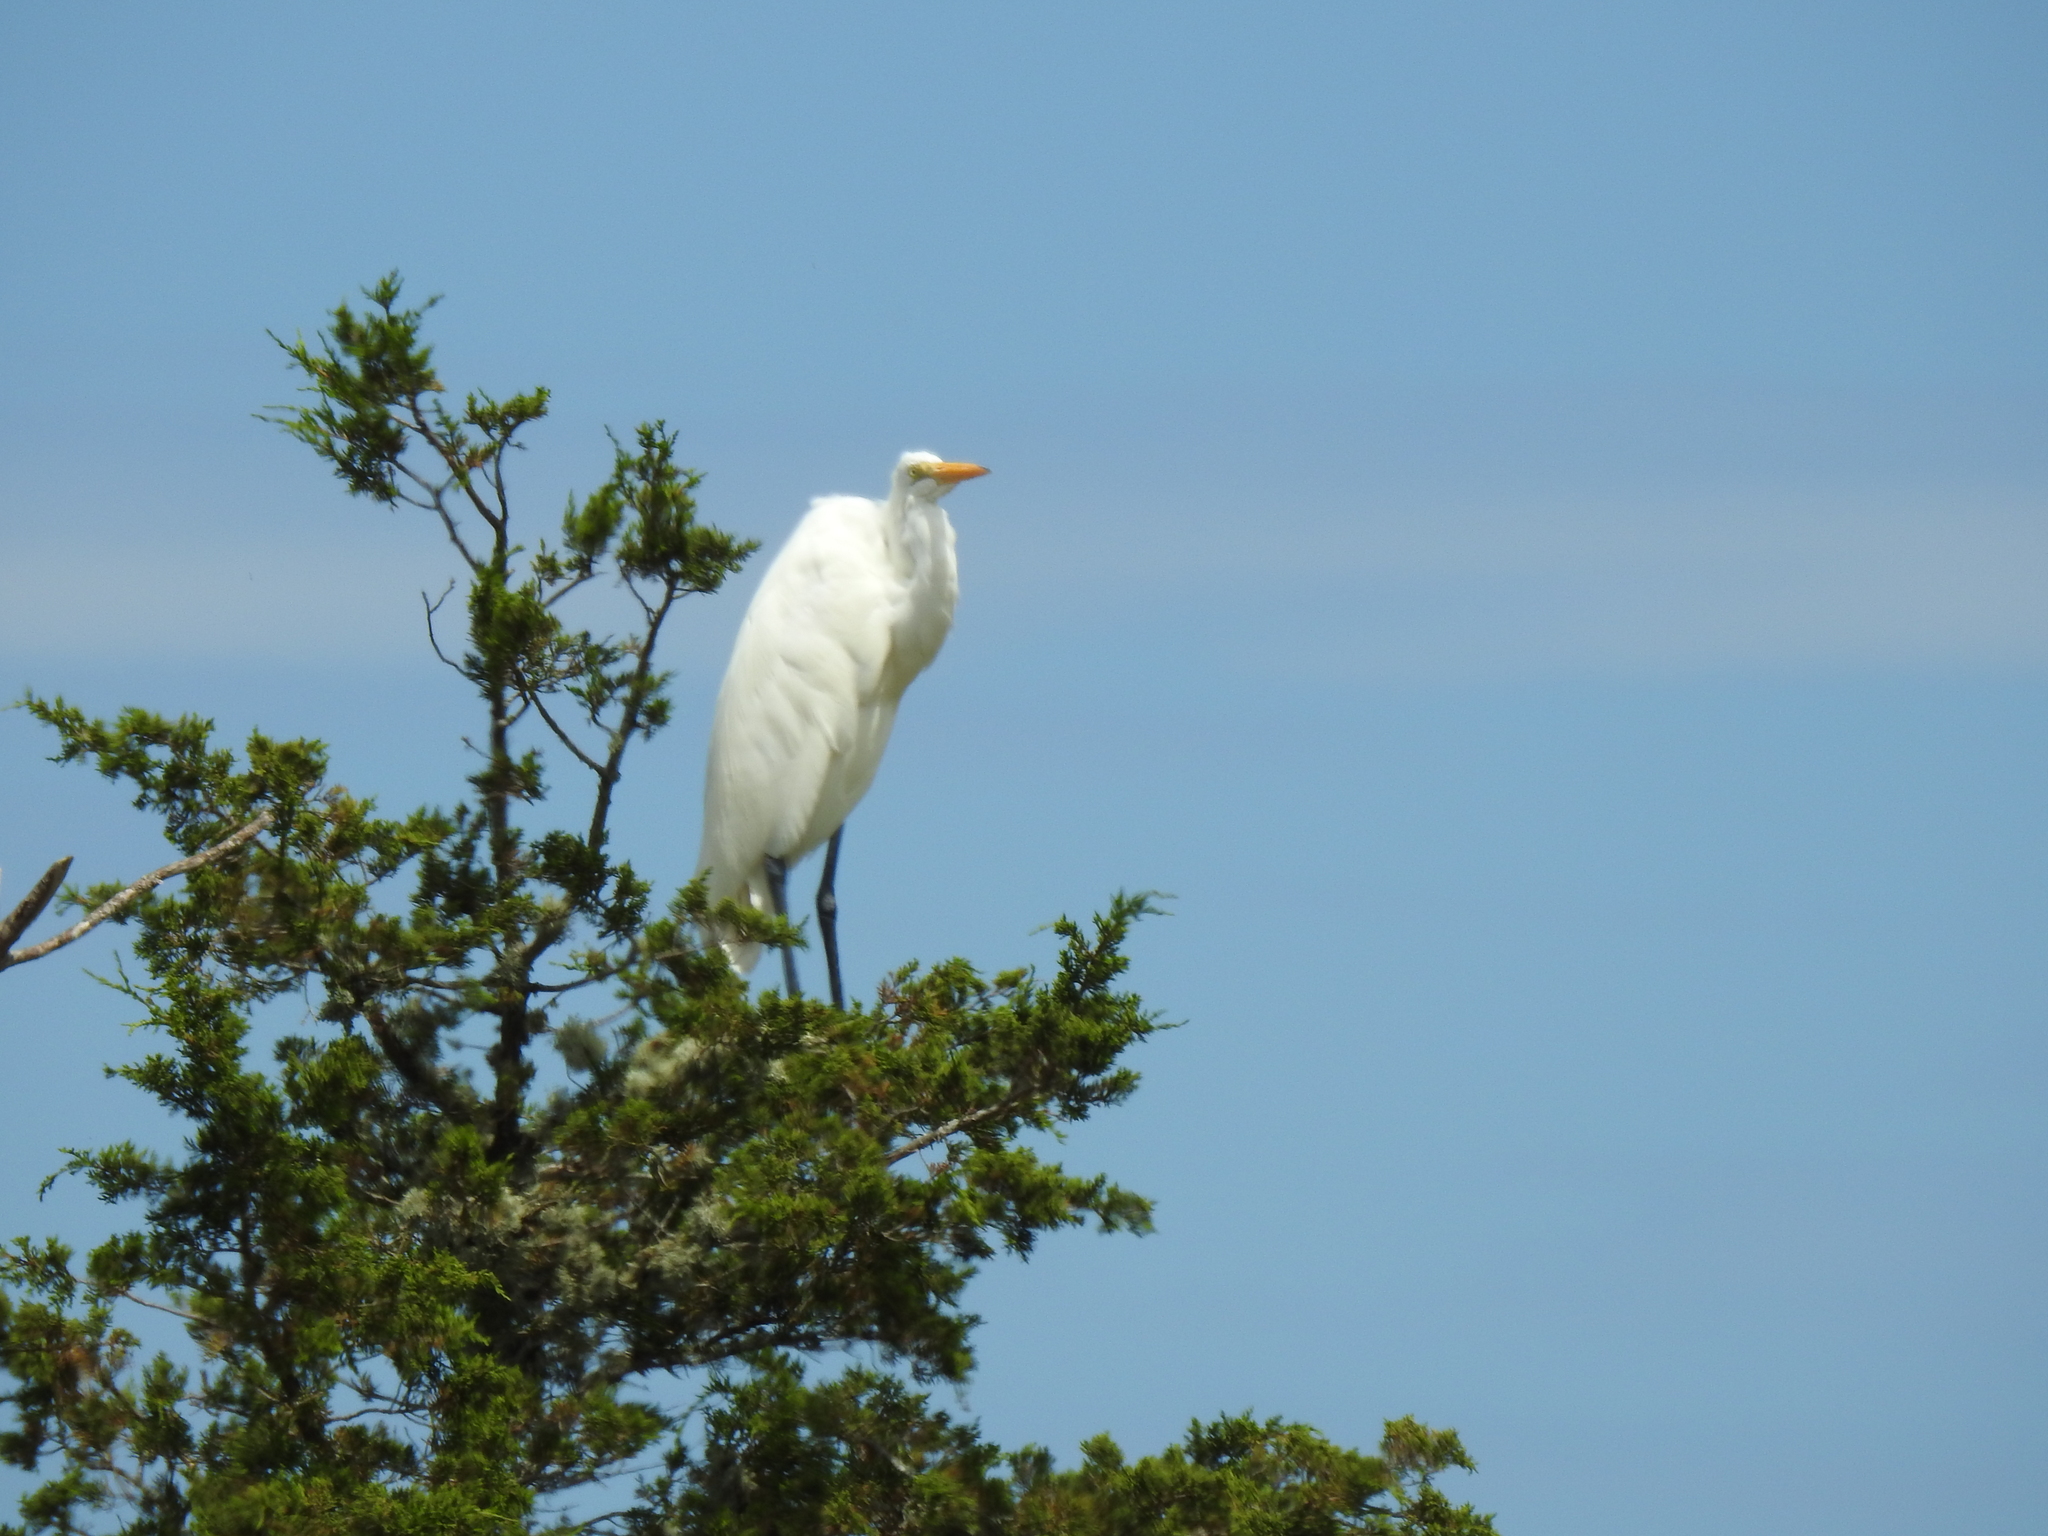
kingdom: Animalia
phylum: Chordata
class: Aves
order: Pelecaniformes
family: Ardeidae
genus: Ardea
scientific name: Ardea alba
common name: Great egret
